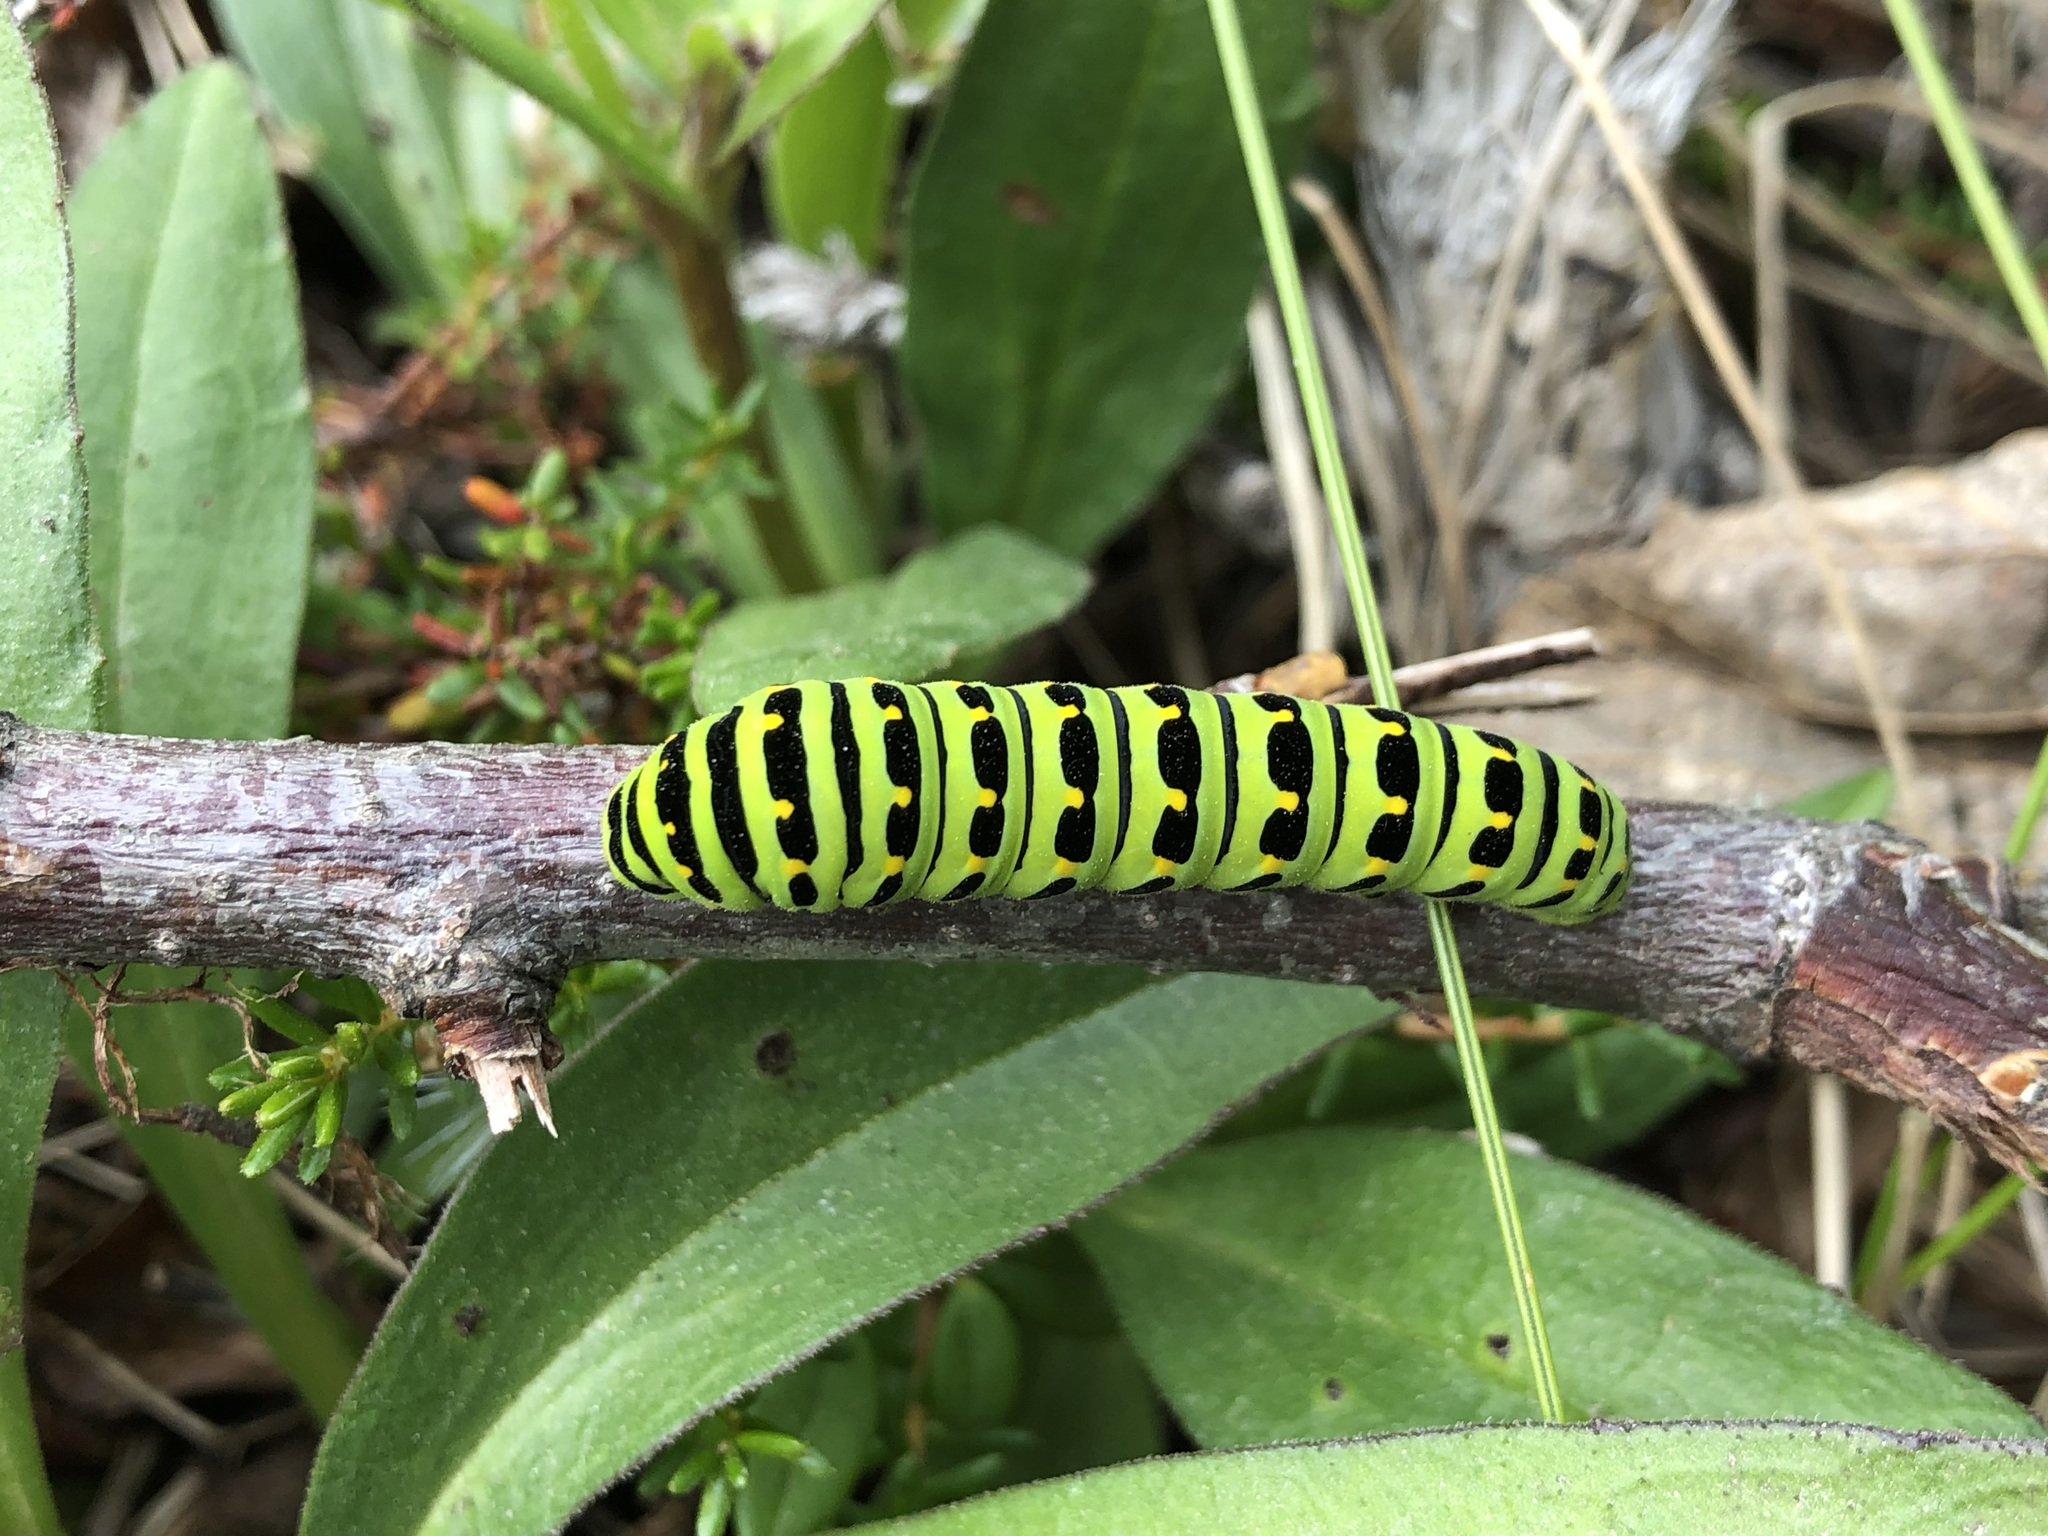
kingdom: Animalia
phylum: Arthropoda
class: Insecta
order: Lepidoptera
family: Papilionidae
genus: Papilio
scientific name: Papilio machaon
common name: Swallowtail
